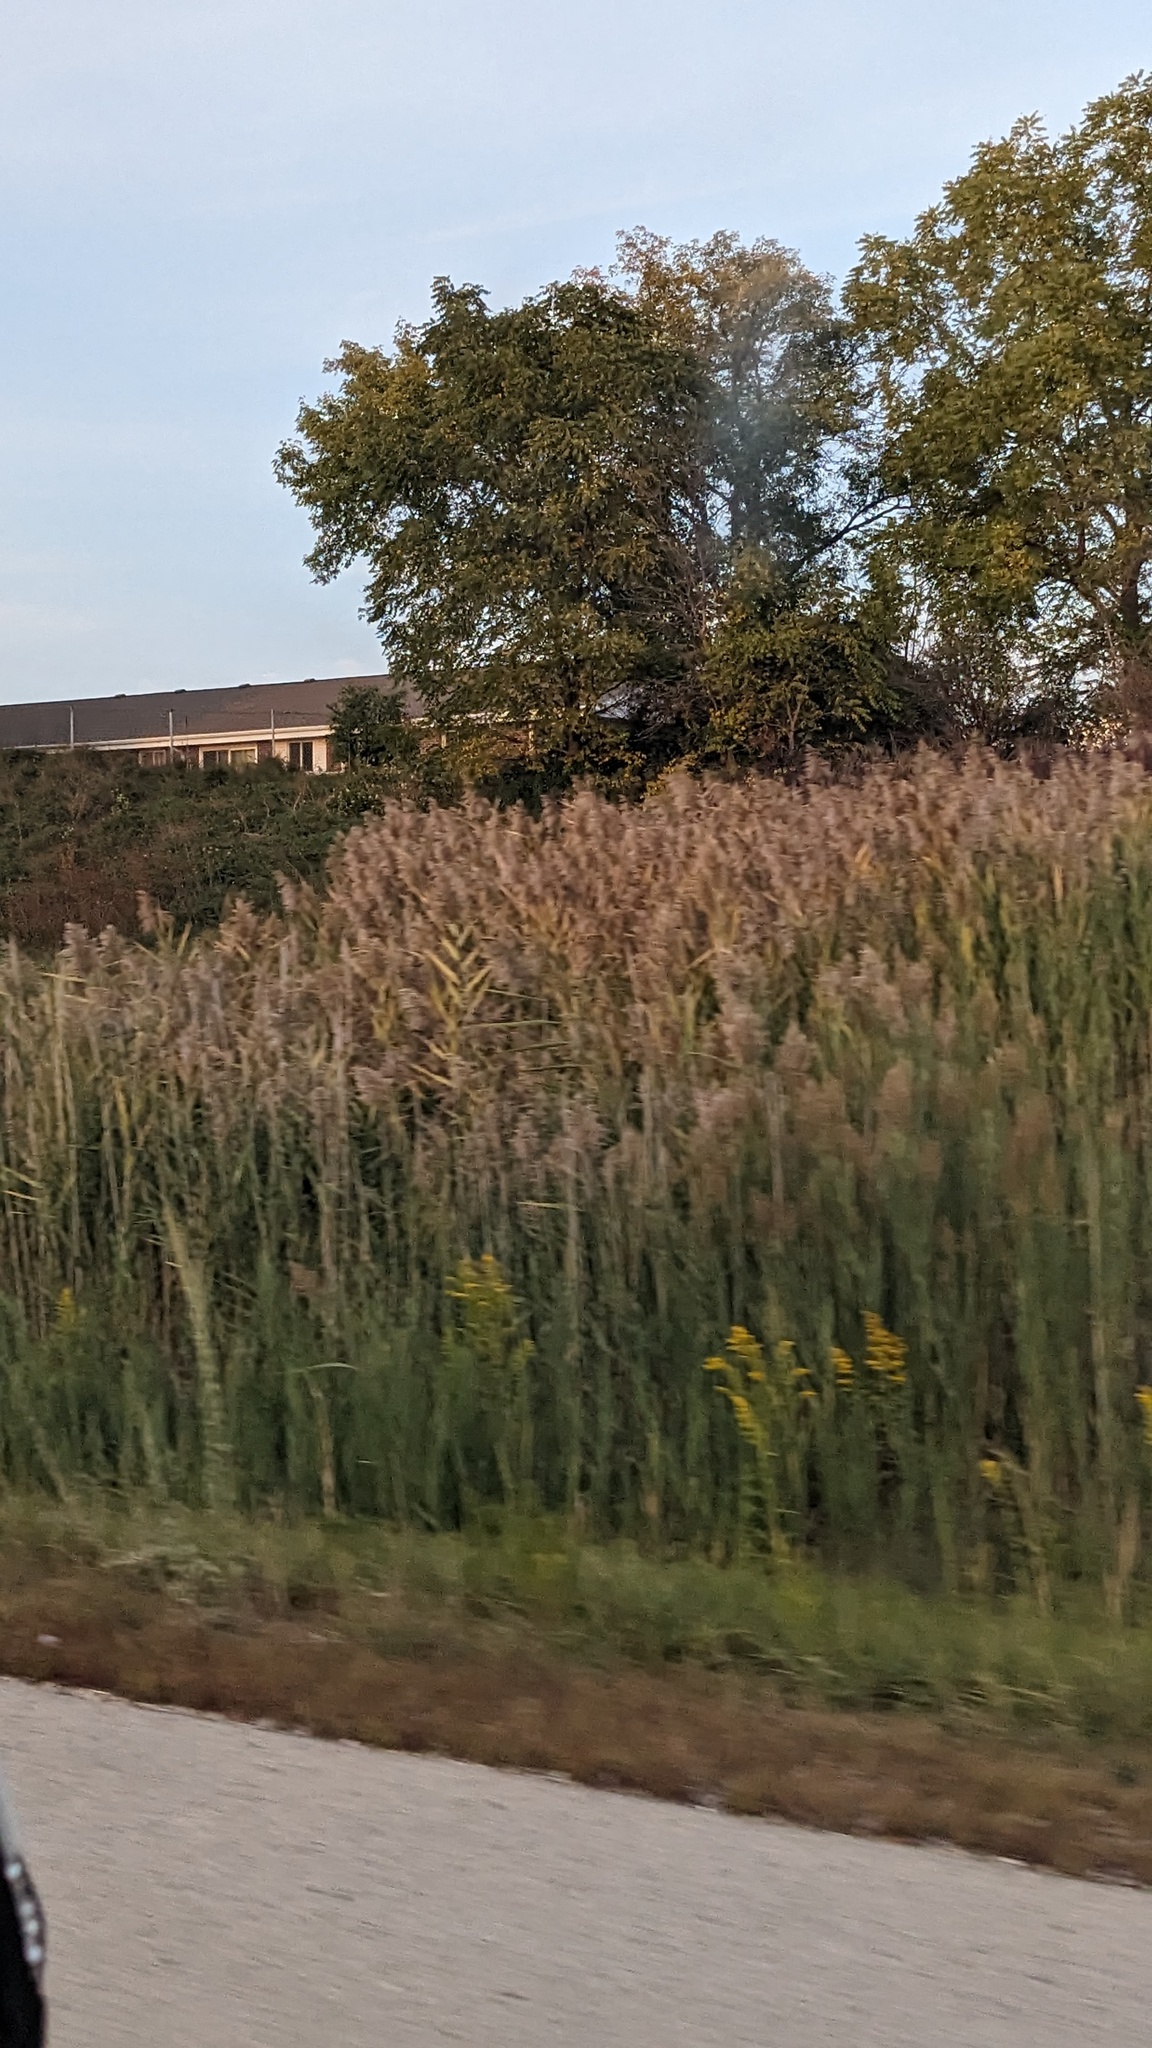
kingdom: Plantae
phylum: Tracheophyta
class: Liliopsida
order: Poales
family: Poaceae
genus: Phragmites
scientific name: Phragmites australis
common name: Common reed
